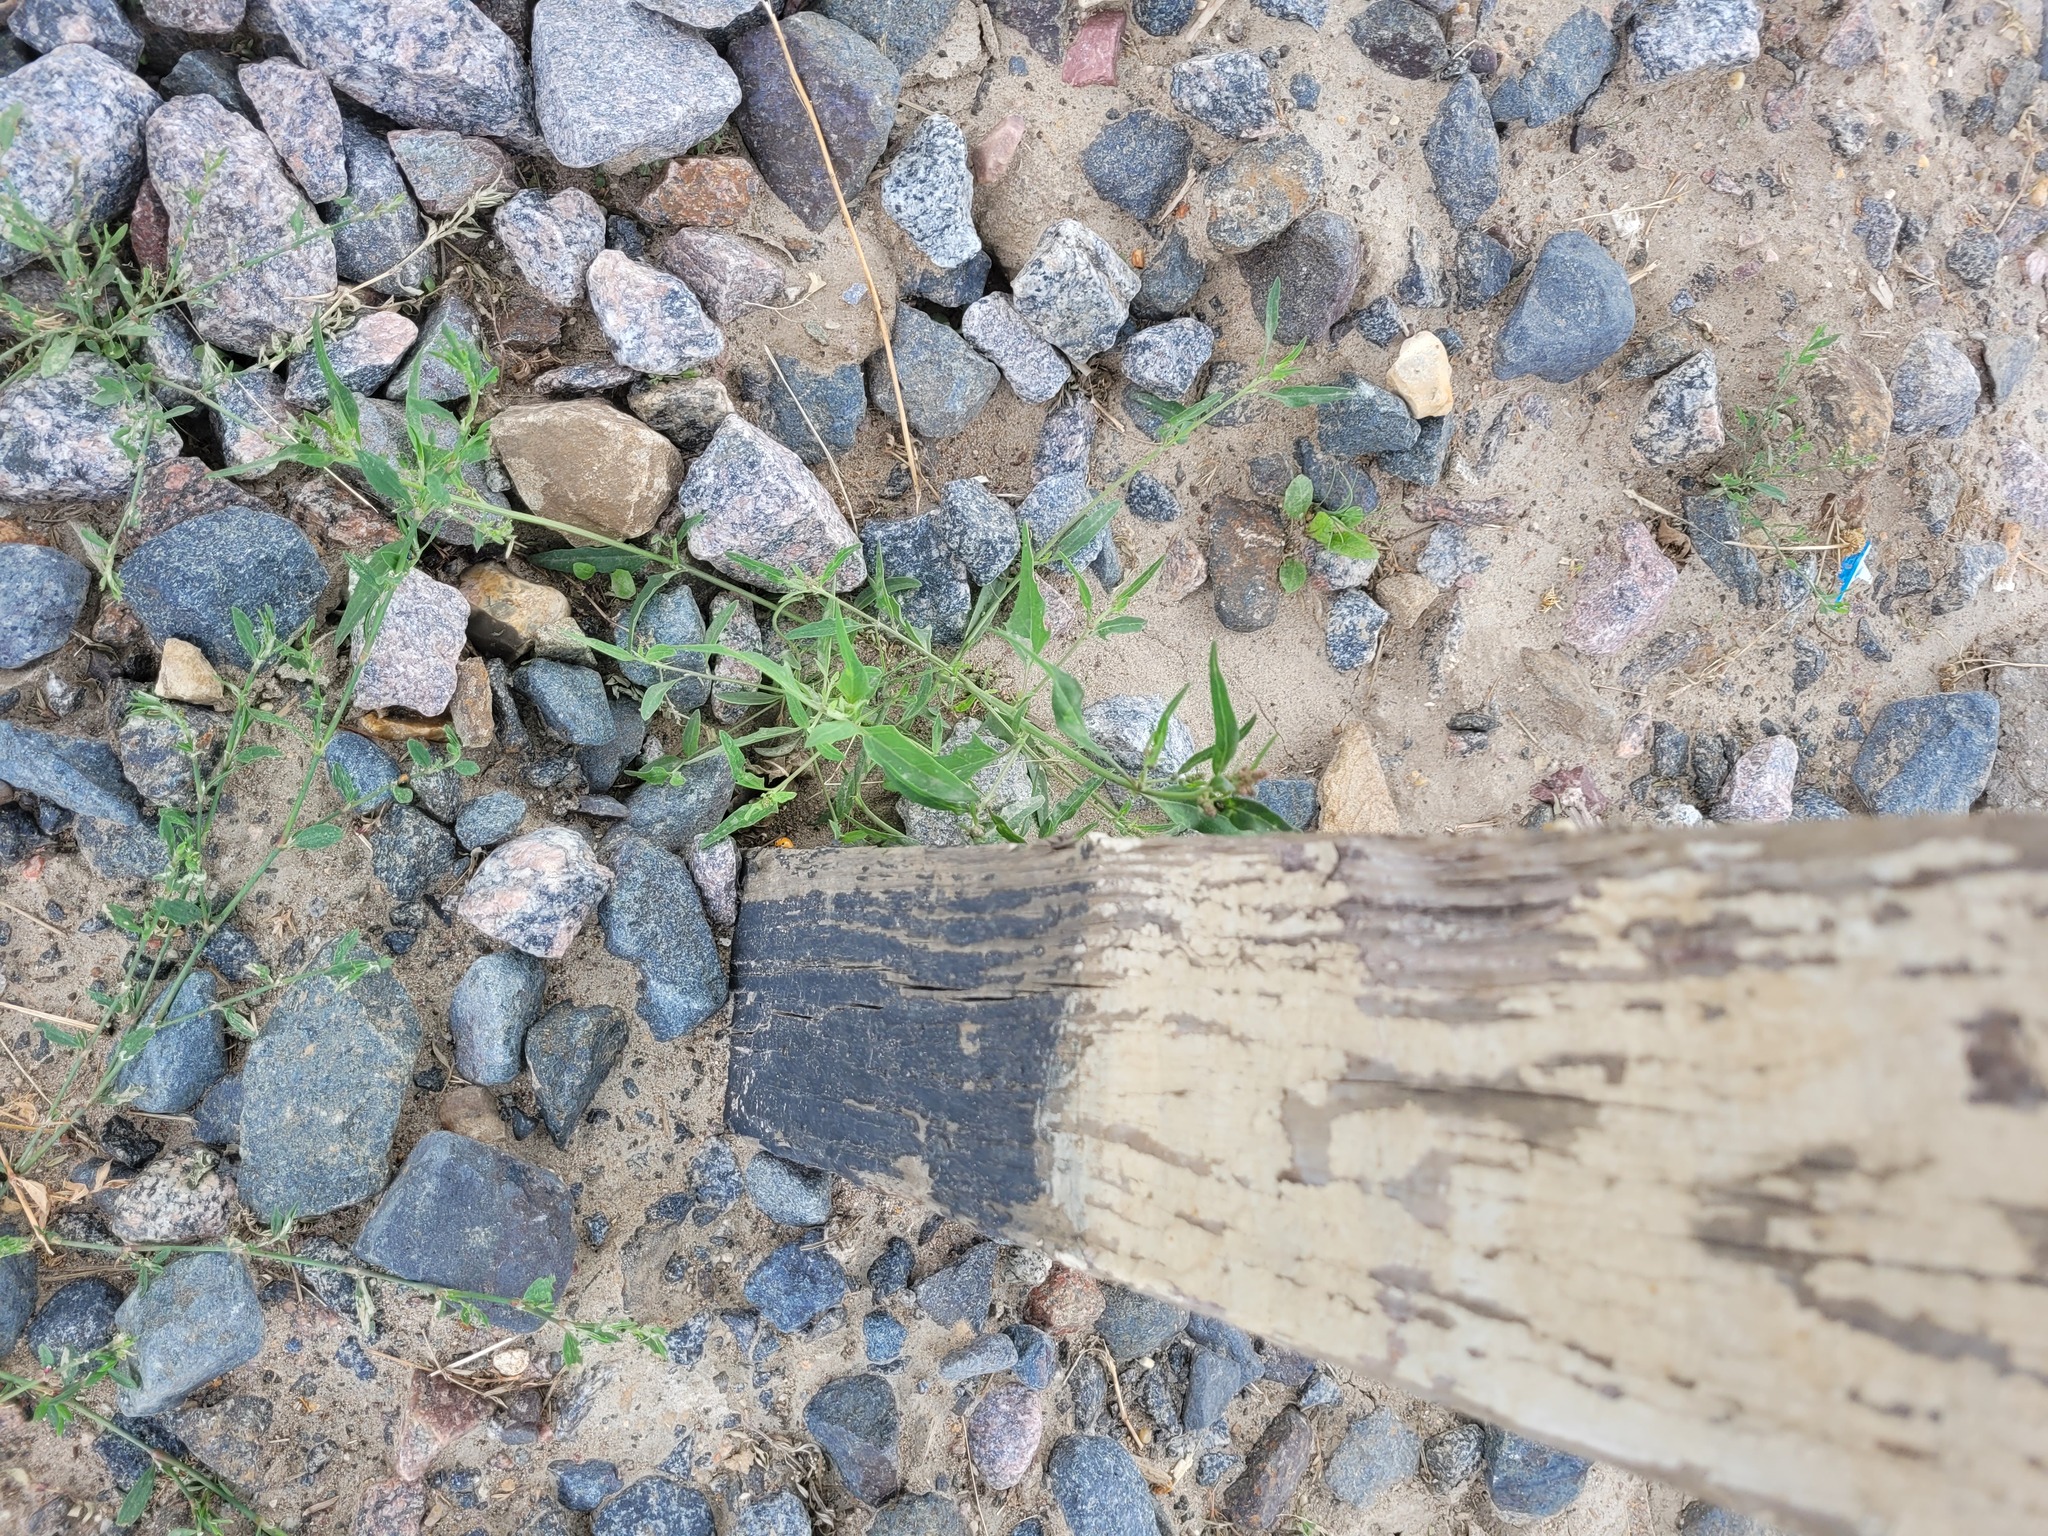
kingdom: Plantae
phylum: Tracheophyta
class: Magnoliopsida
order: Caryophyllales
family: Amaranthaceae
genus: Atriplex
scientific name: Atriplex patula
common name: Common orache
